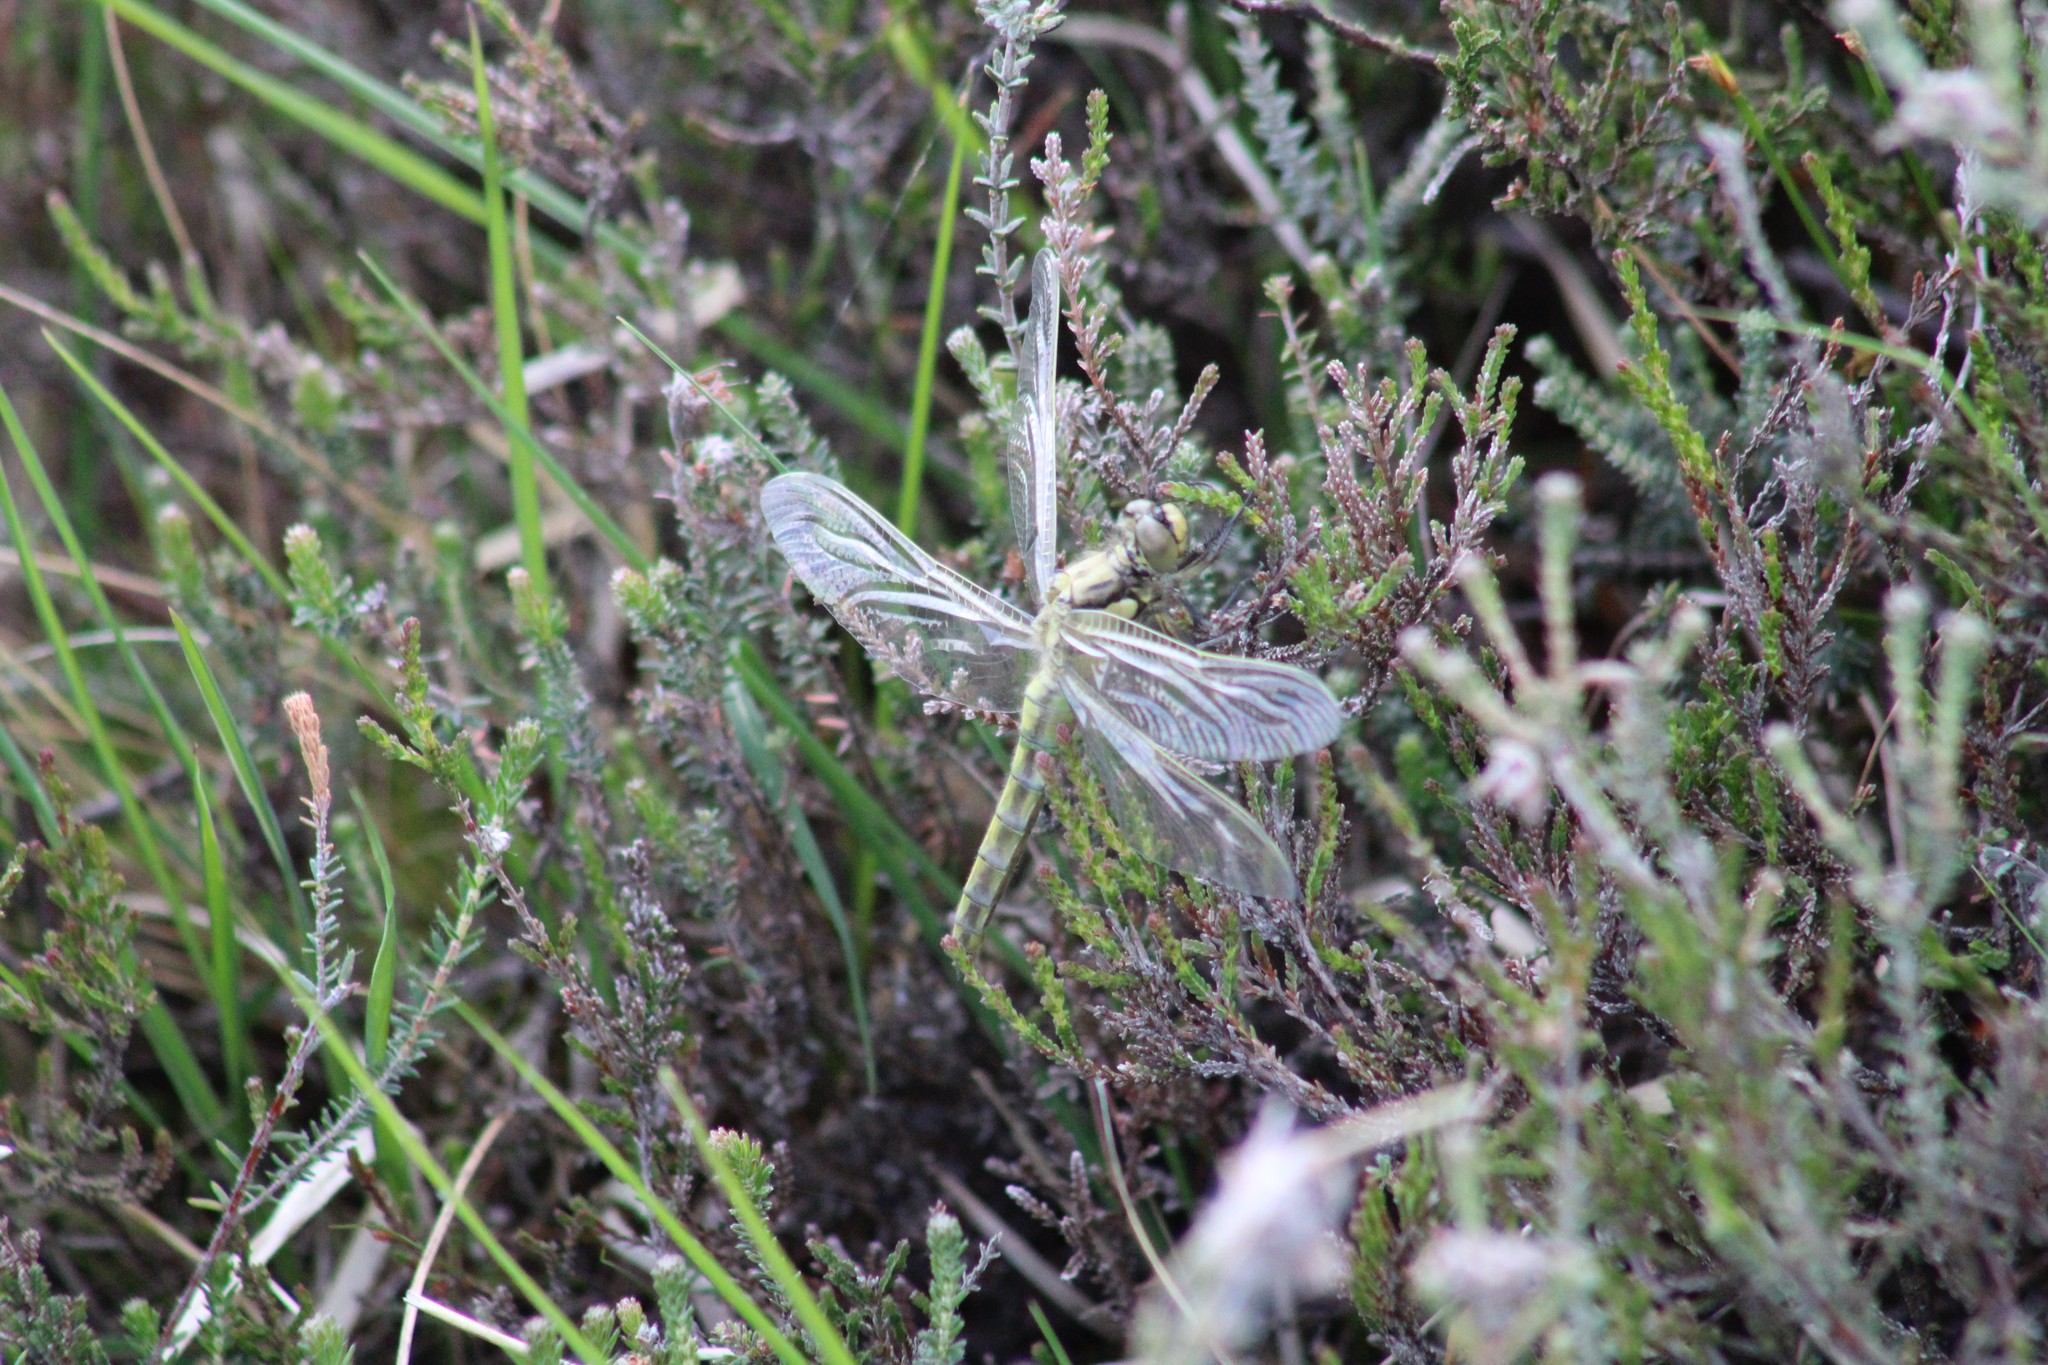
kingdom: Animalia
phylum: Arthropoda
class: Insecta
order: Odonata
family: Libellulidae
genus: Orthetrum
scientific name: Orthetrum cancellatum
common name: Black-tailed skimmer
